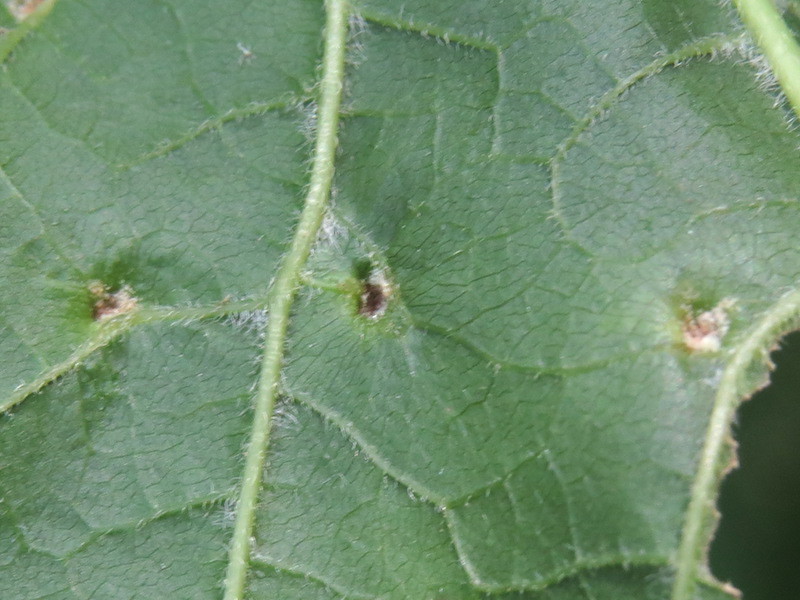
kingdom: Animalia
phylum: Arthropoda
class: Arachnida
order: Trombidiformes
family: Eriophyidae
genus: Aceria
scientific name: Aceria
